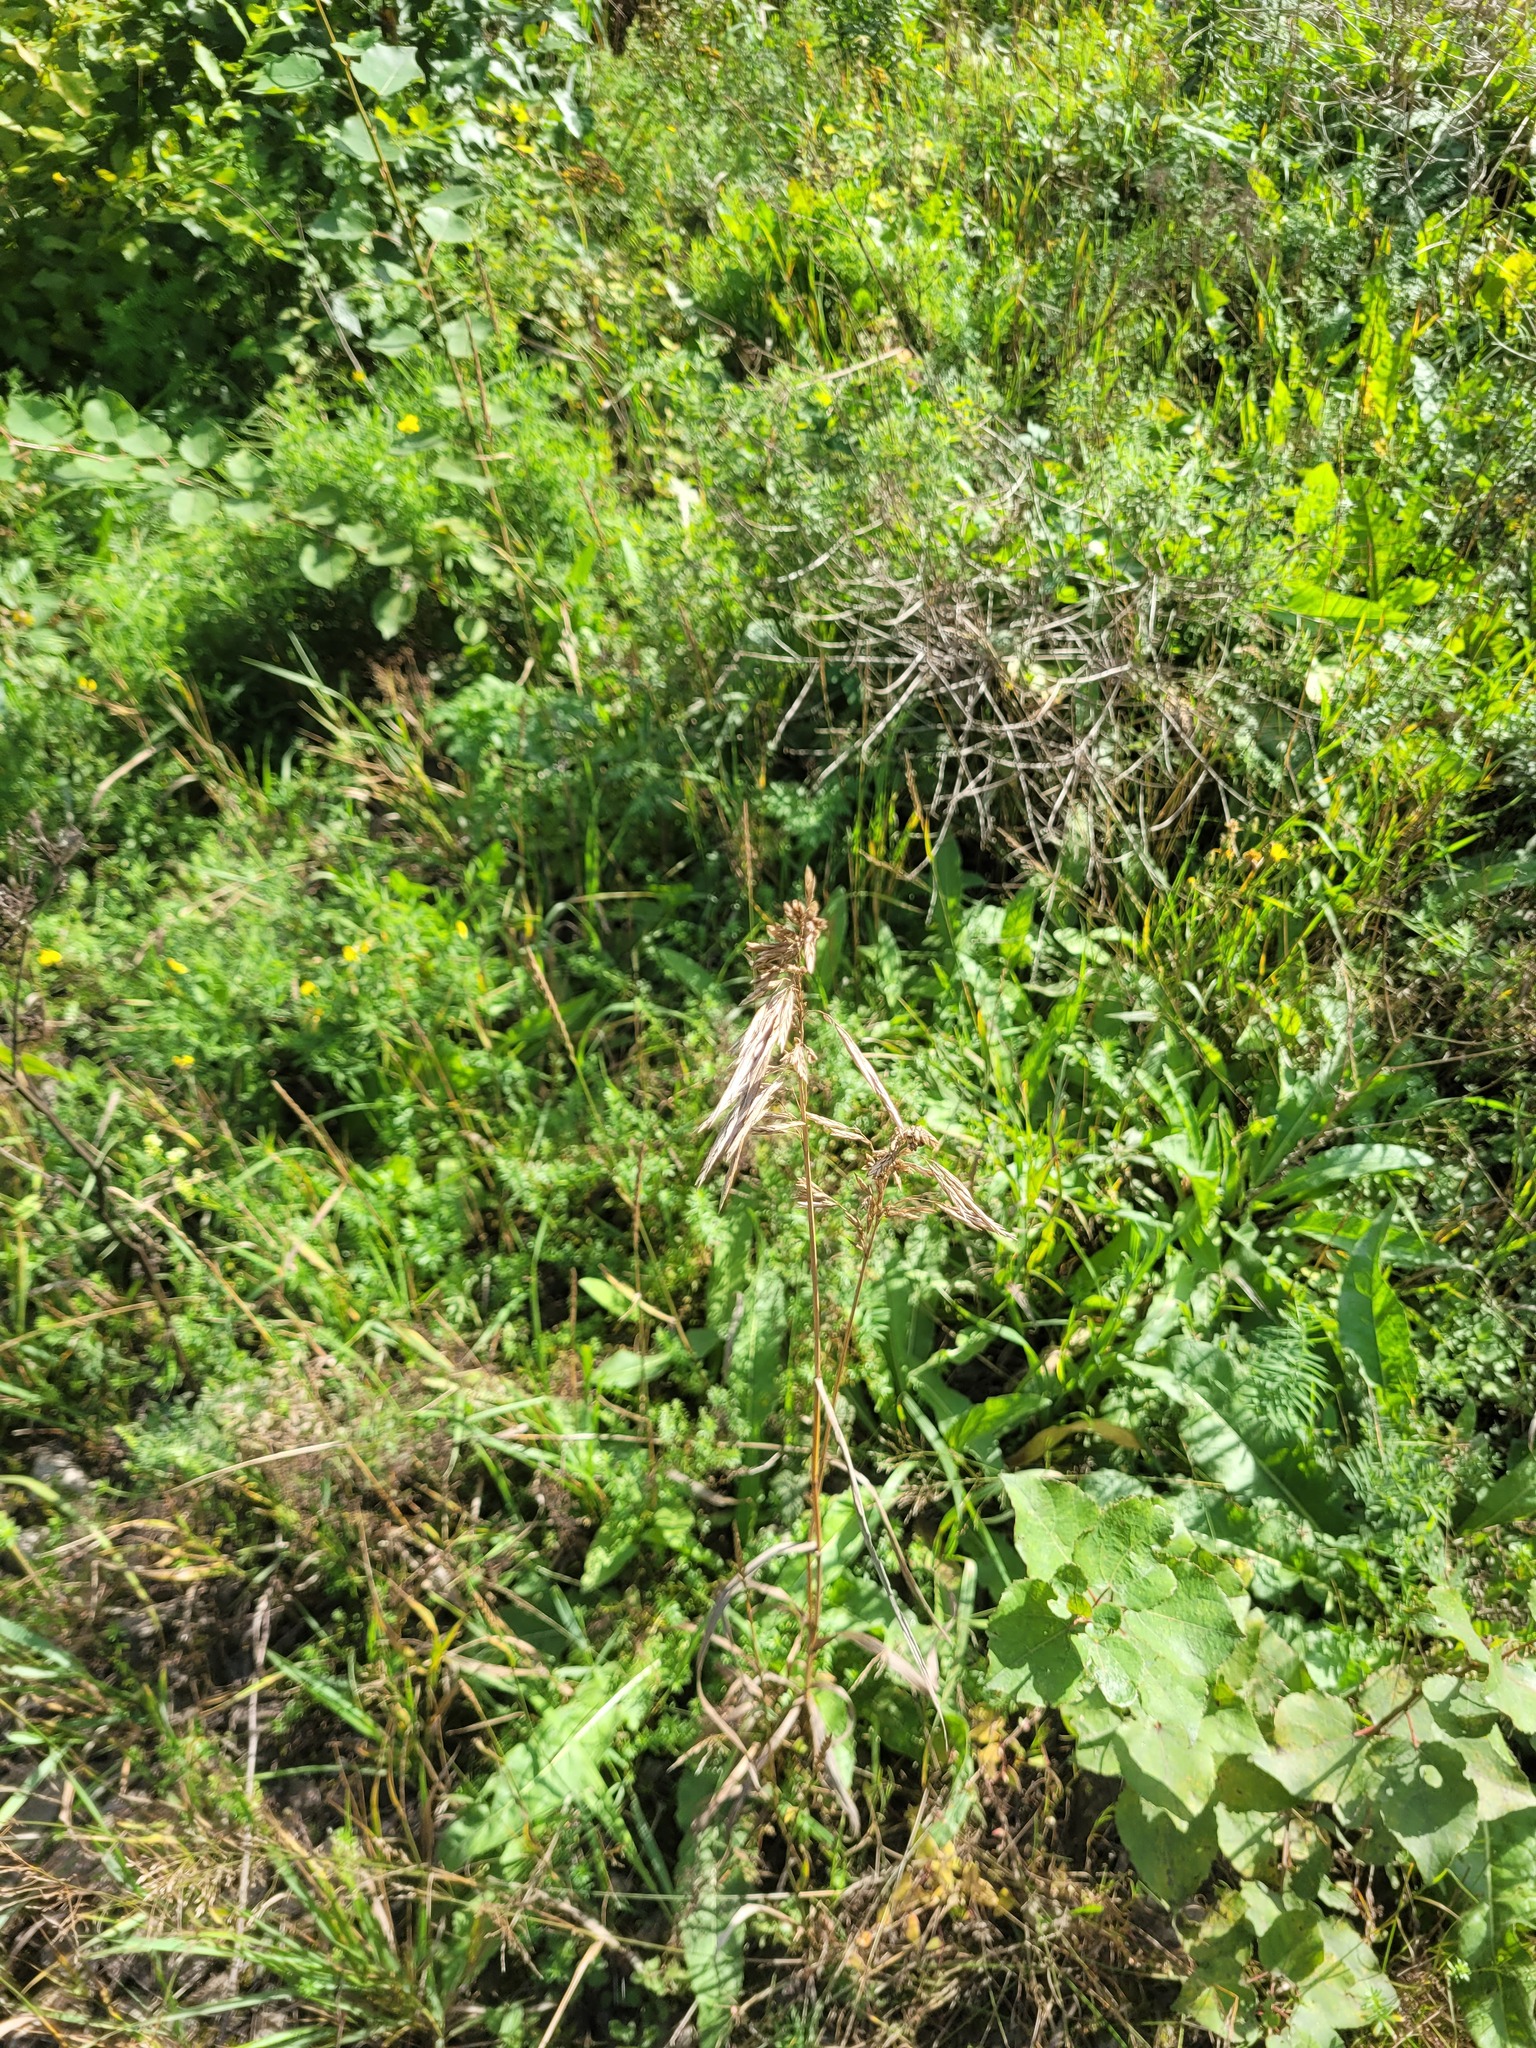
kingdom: Plantae
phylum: Tracheophyta
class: Liliopsida
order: Poales
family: Poaceae
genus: Bromus
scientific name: Bromus inermis
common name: Smooth brome
